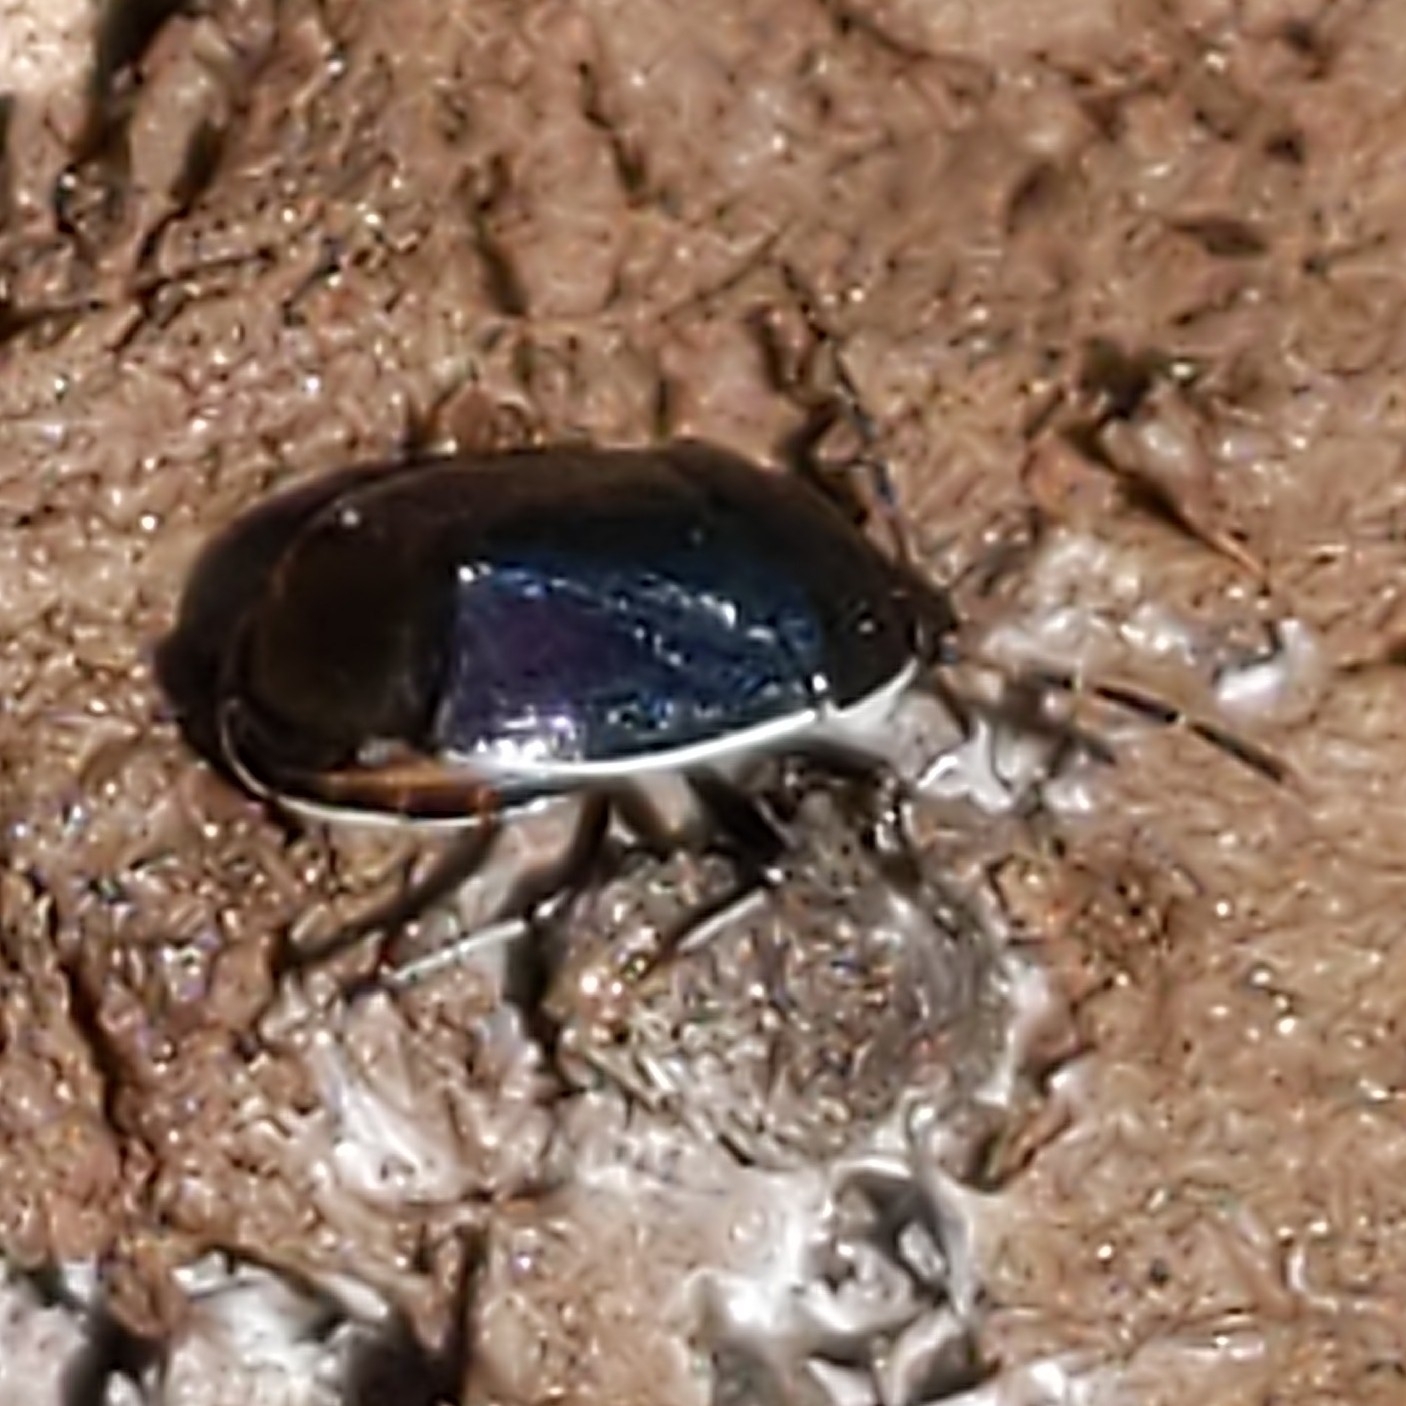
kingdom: Animalia
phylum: Arthropoda
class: Insecta
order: Hemiptera
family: Cydnidae
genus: Sehirus
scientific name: Sehirus cinctus
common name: White-margined burrower bug
